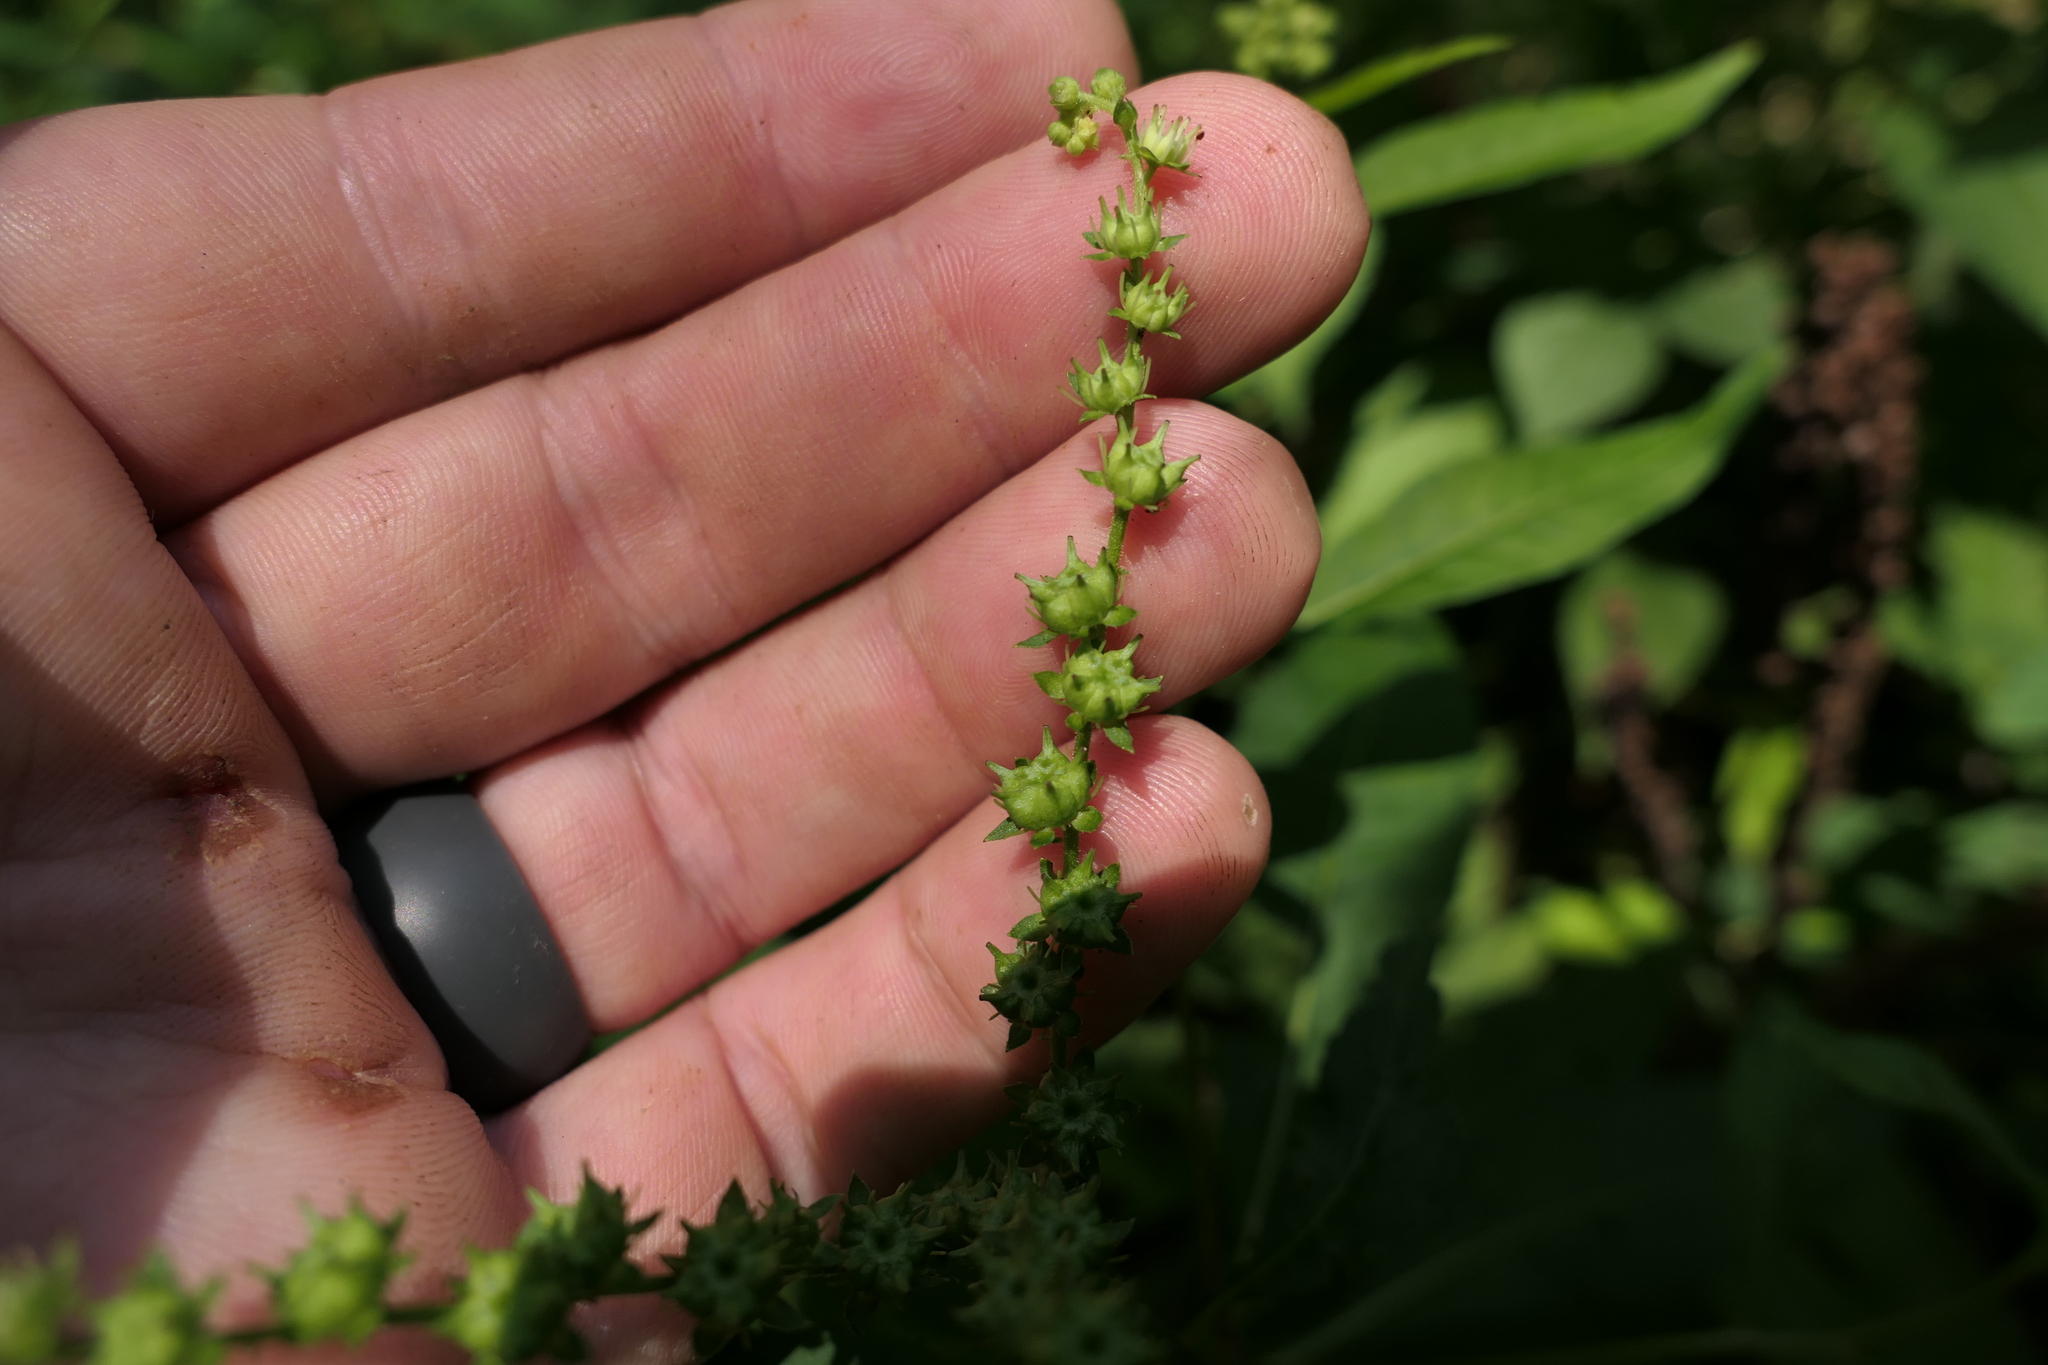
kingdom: Plantae
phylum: Tracheophyta
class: Magnoliopsida
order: Saxifragales
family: Penthoraceae
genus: Penthorum
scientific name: Penthorum sedoides
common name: Ditch stonecrop
